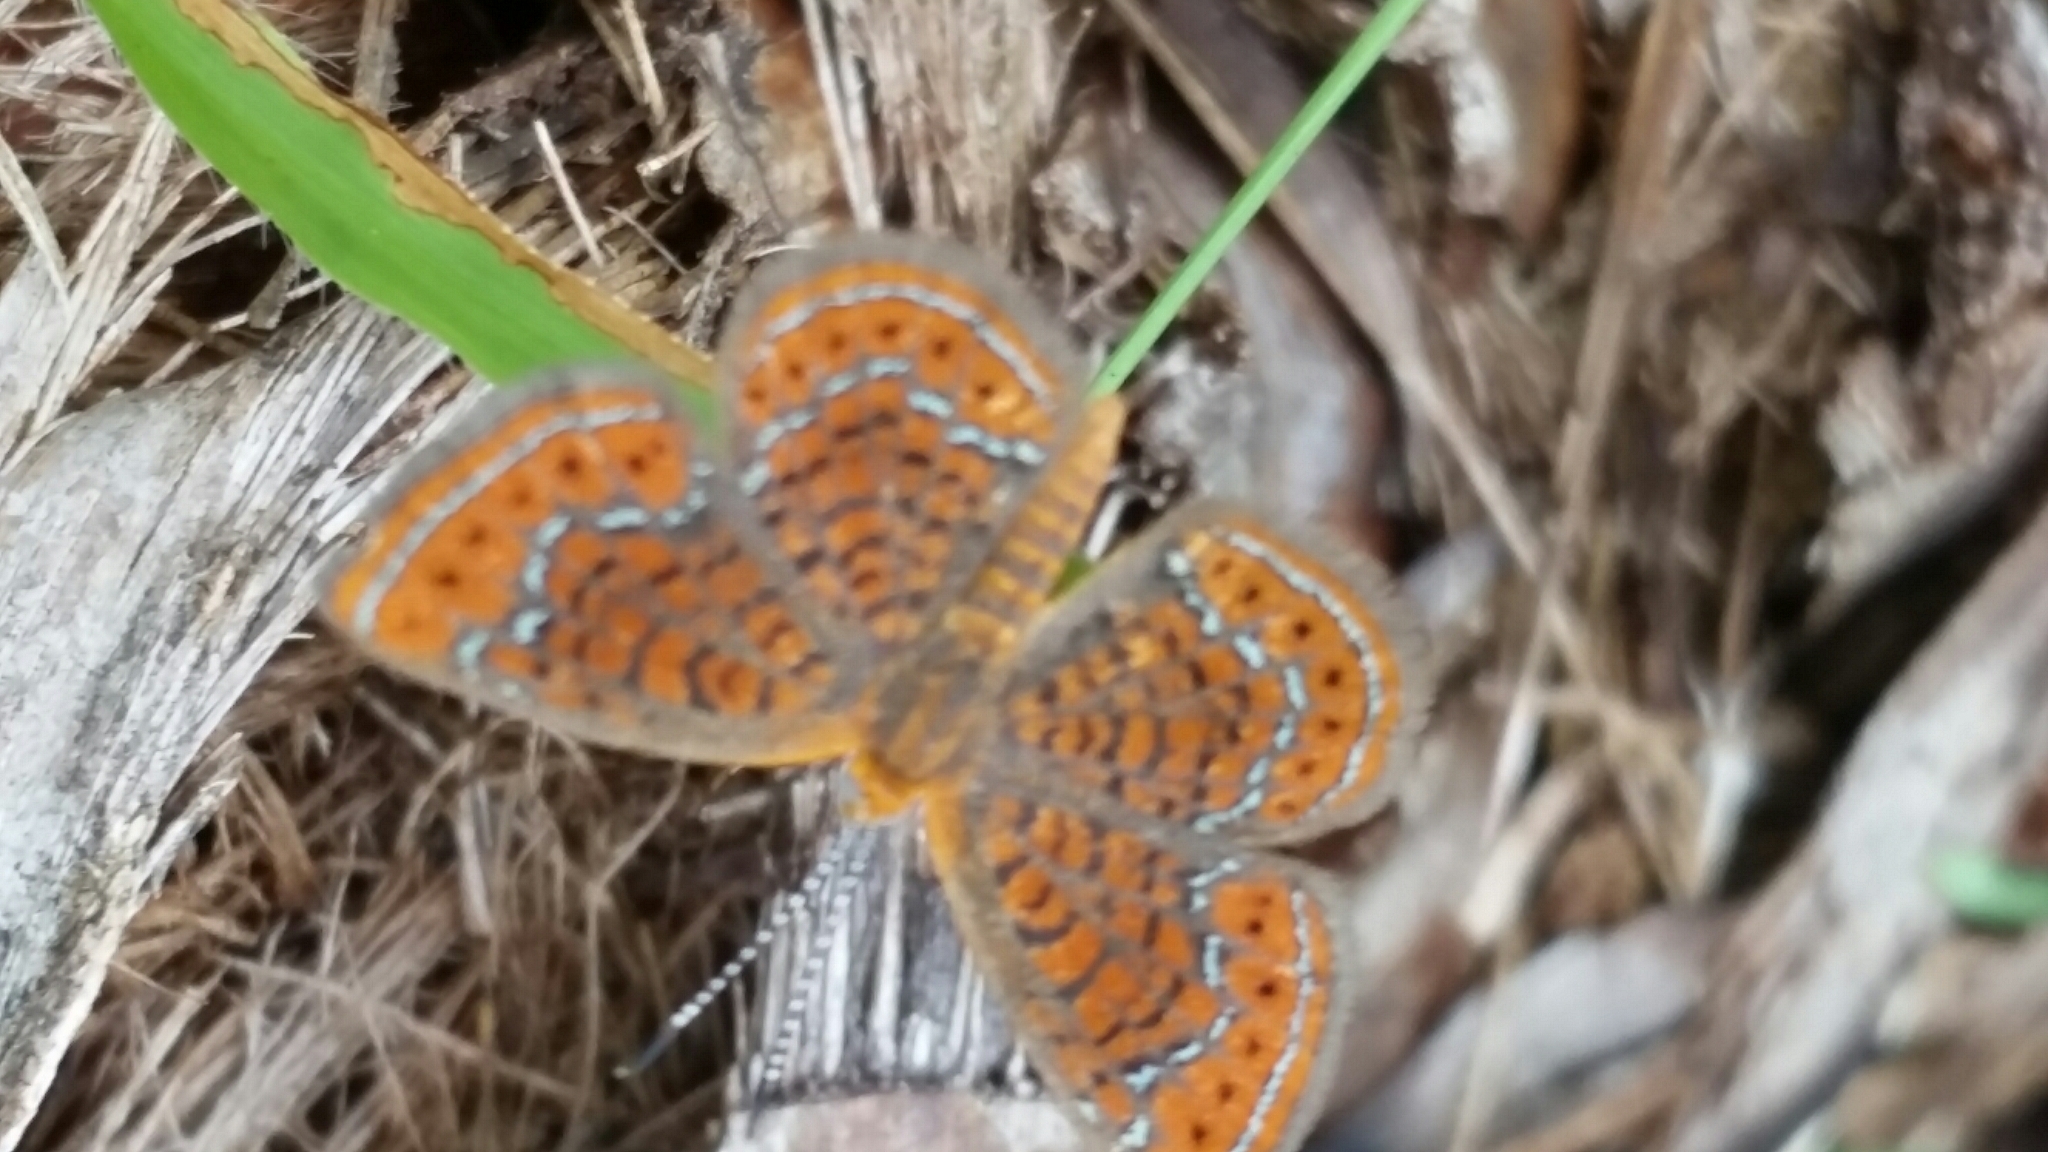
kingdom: Animalia
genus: Calephelis
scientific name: Calephelis virginiensis
